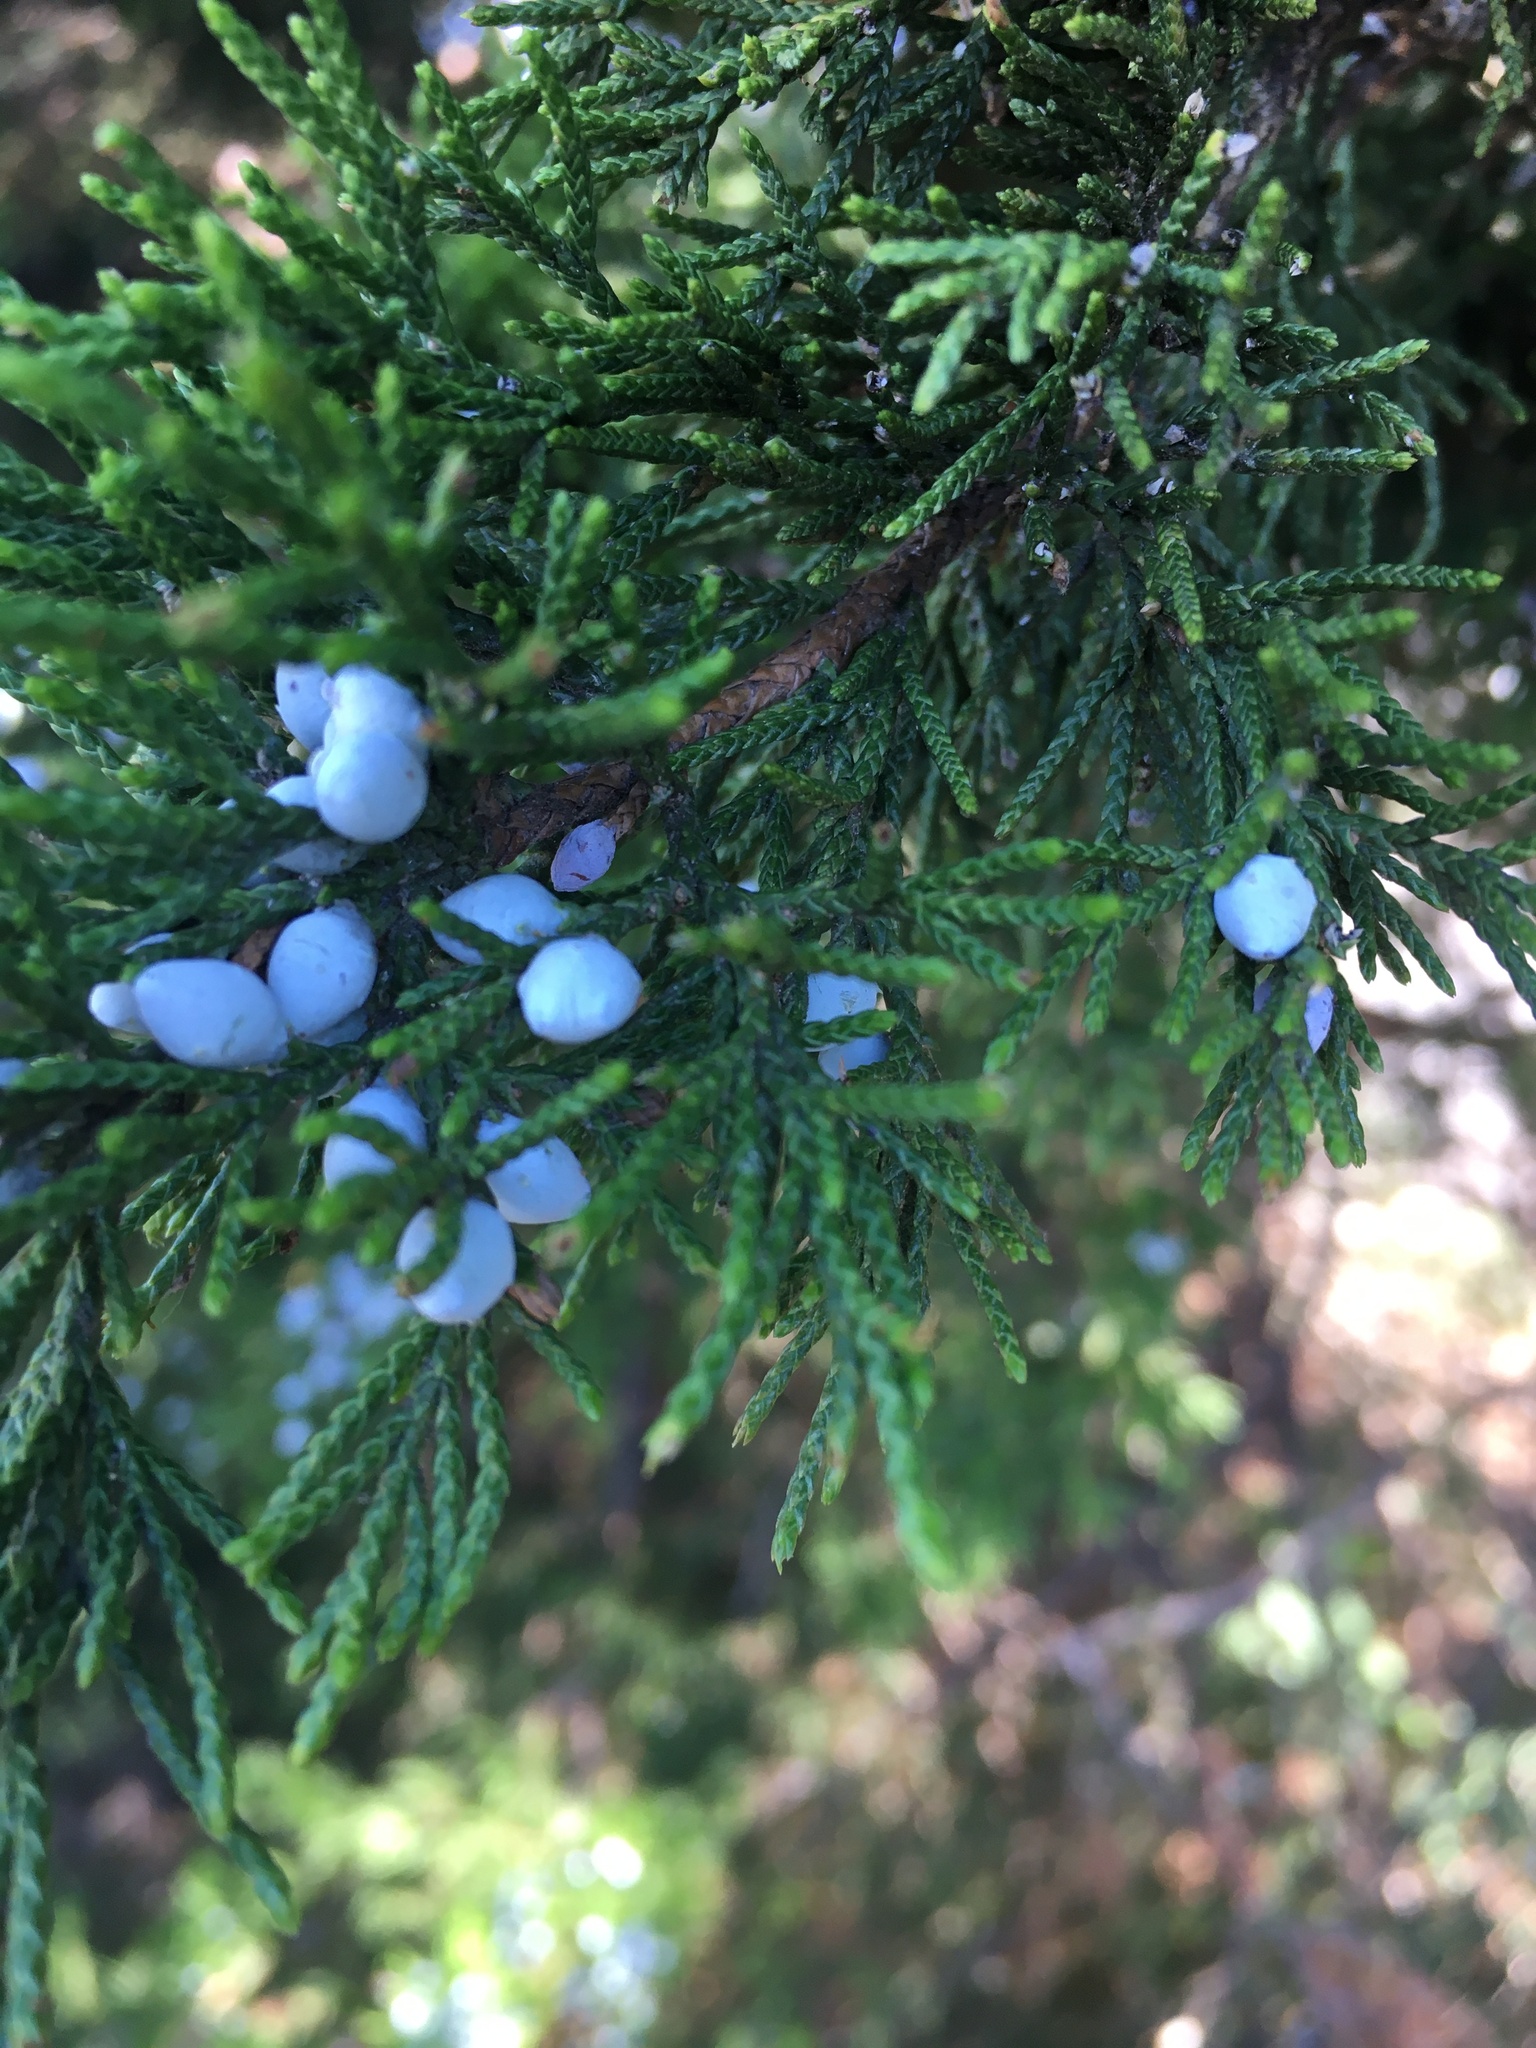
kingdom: Plantae
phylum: Tracheophyta
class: Pinopsida
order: Pinales
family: Cupressaceae
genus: Juniperus
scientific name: Juniperus virginiana
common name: Red juniper
